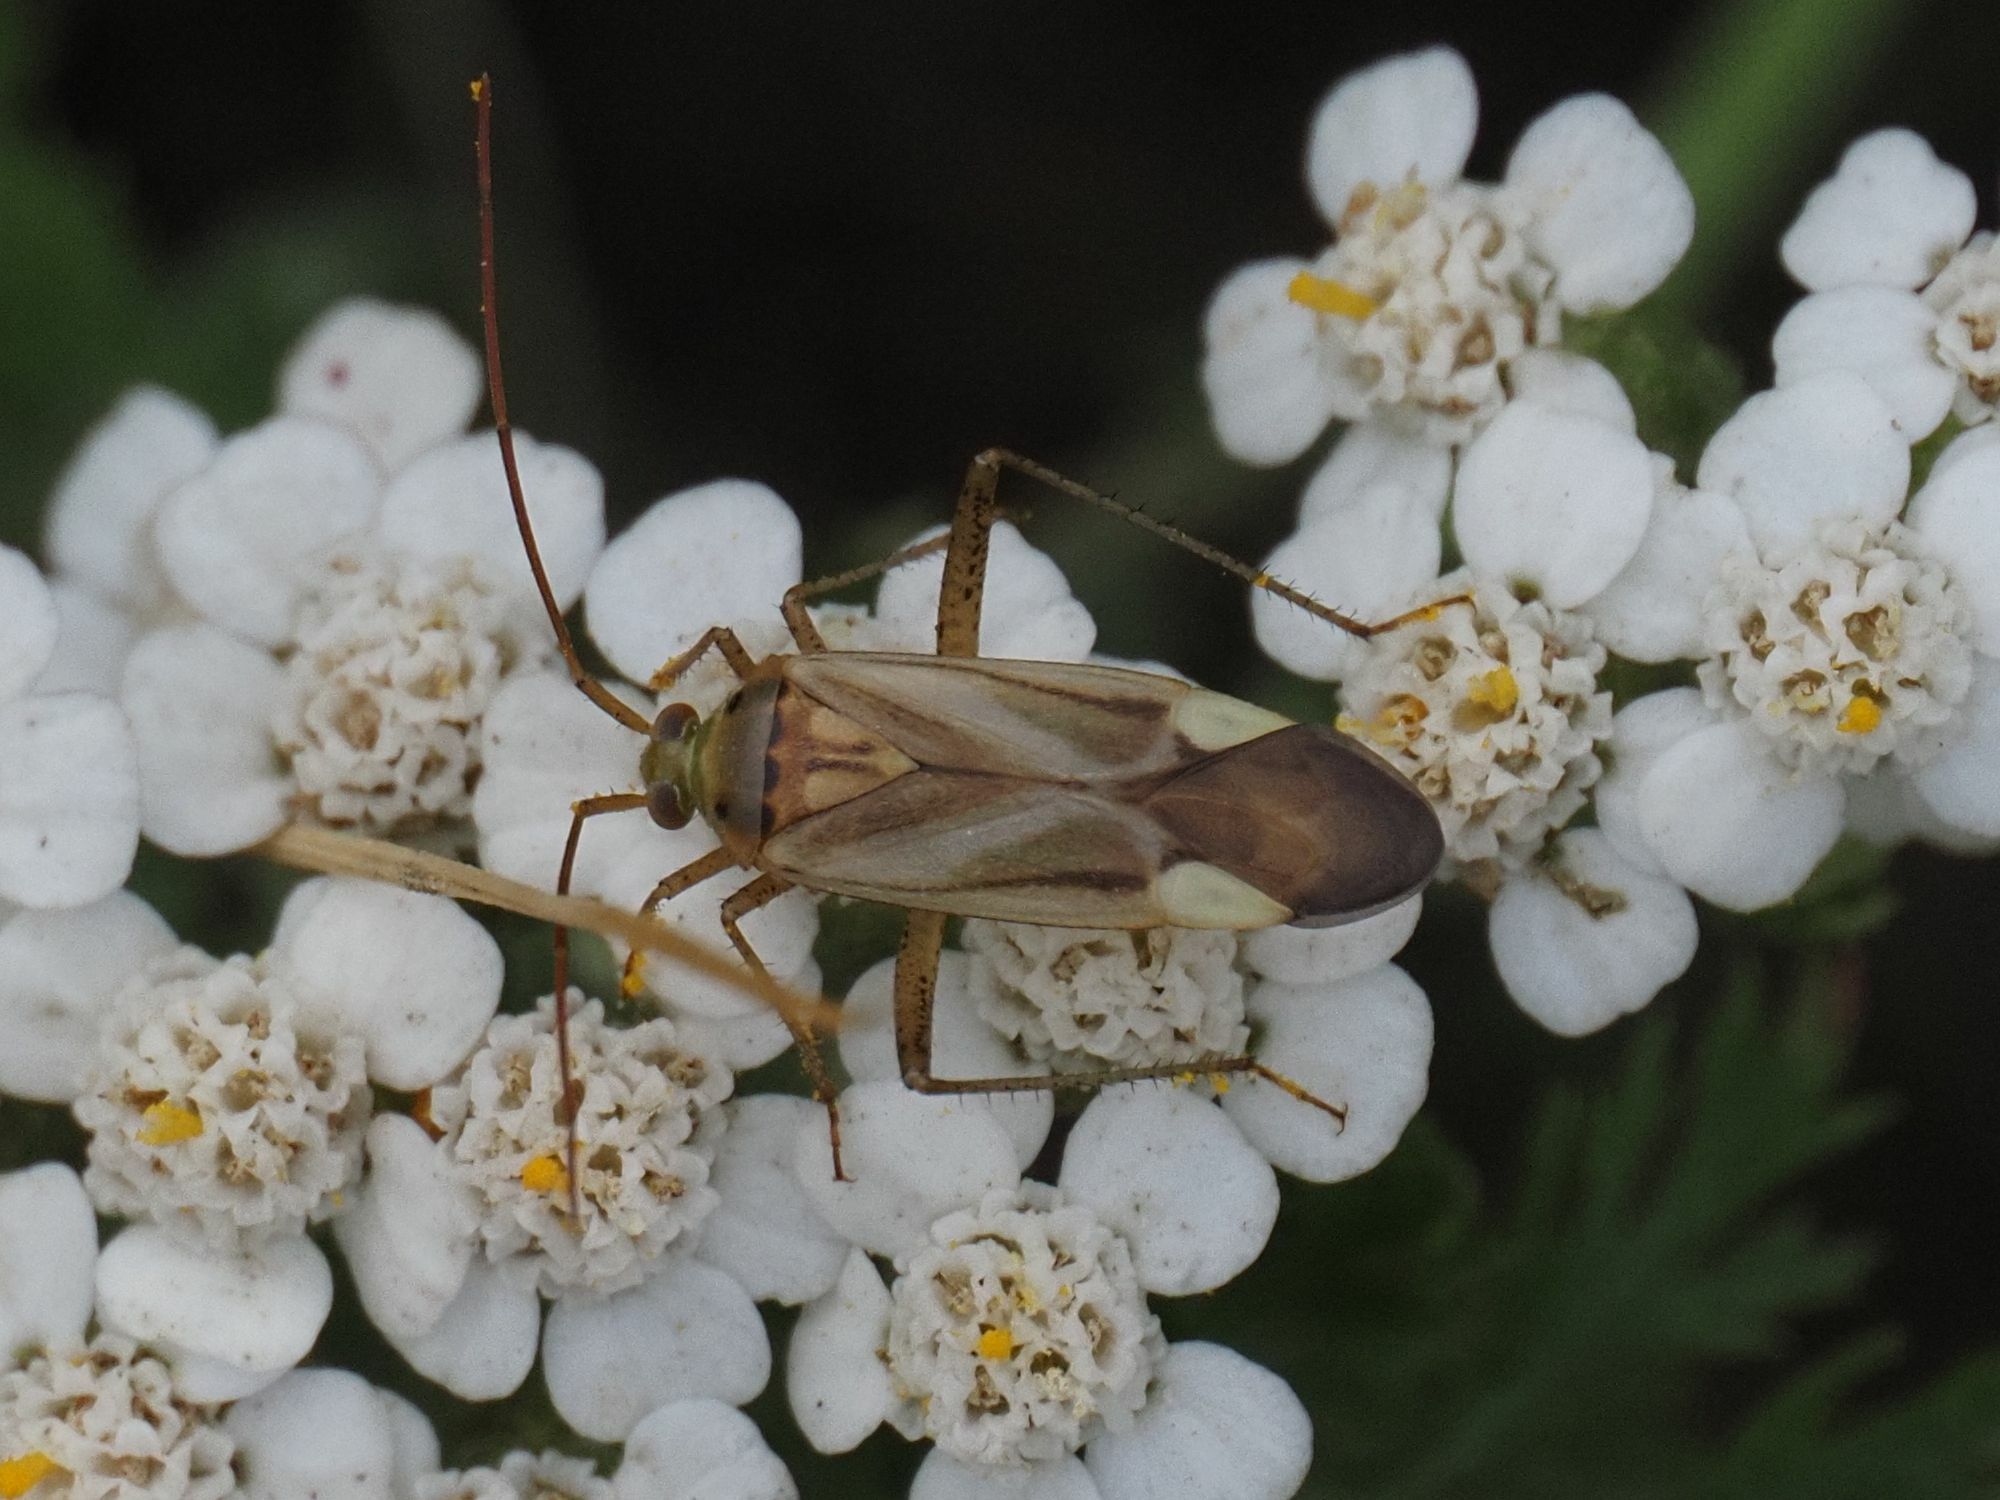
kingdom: Animalia
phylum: Arthropoda
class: Insecta
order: Hemiptera
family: Miridae
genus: Adelphocoris
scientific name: Adelphocoris lineolatus
